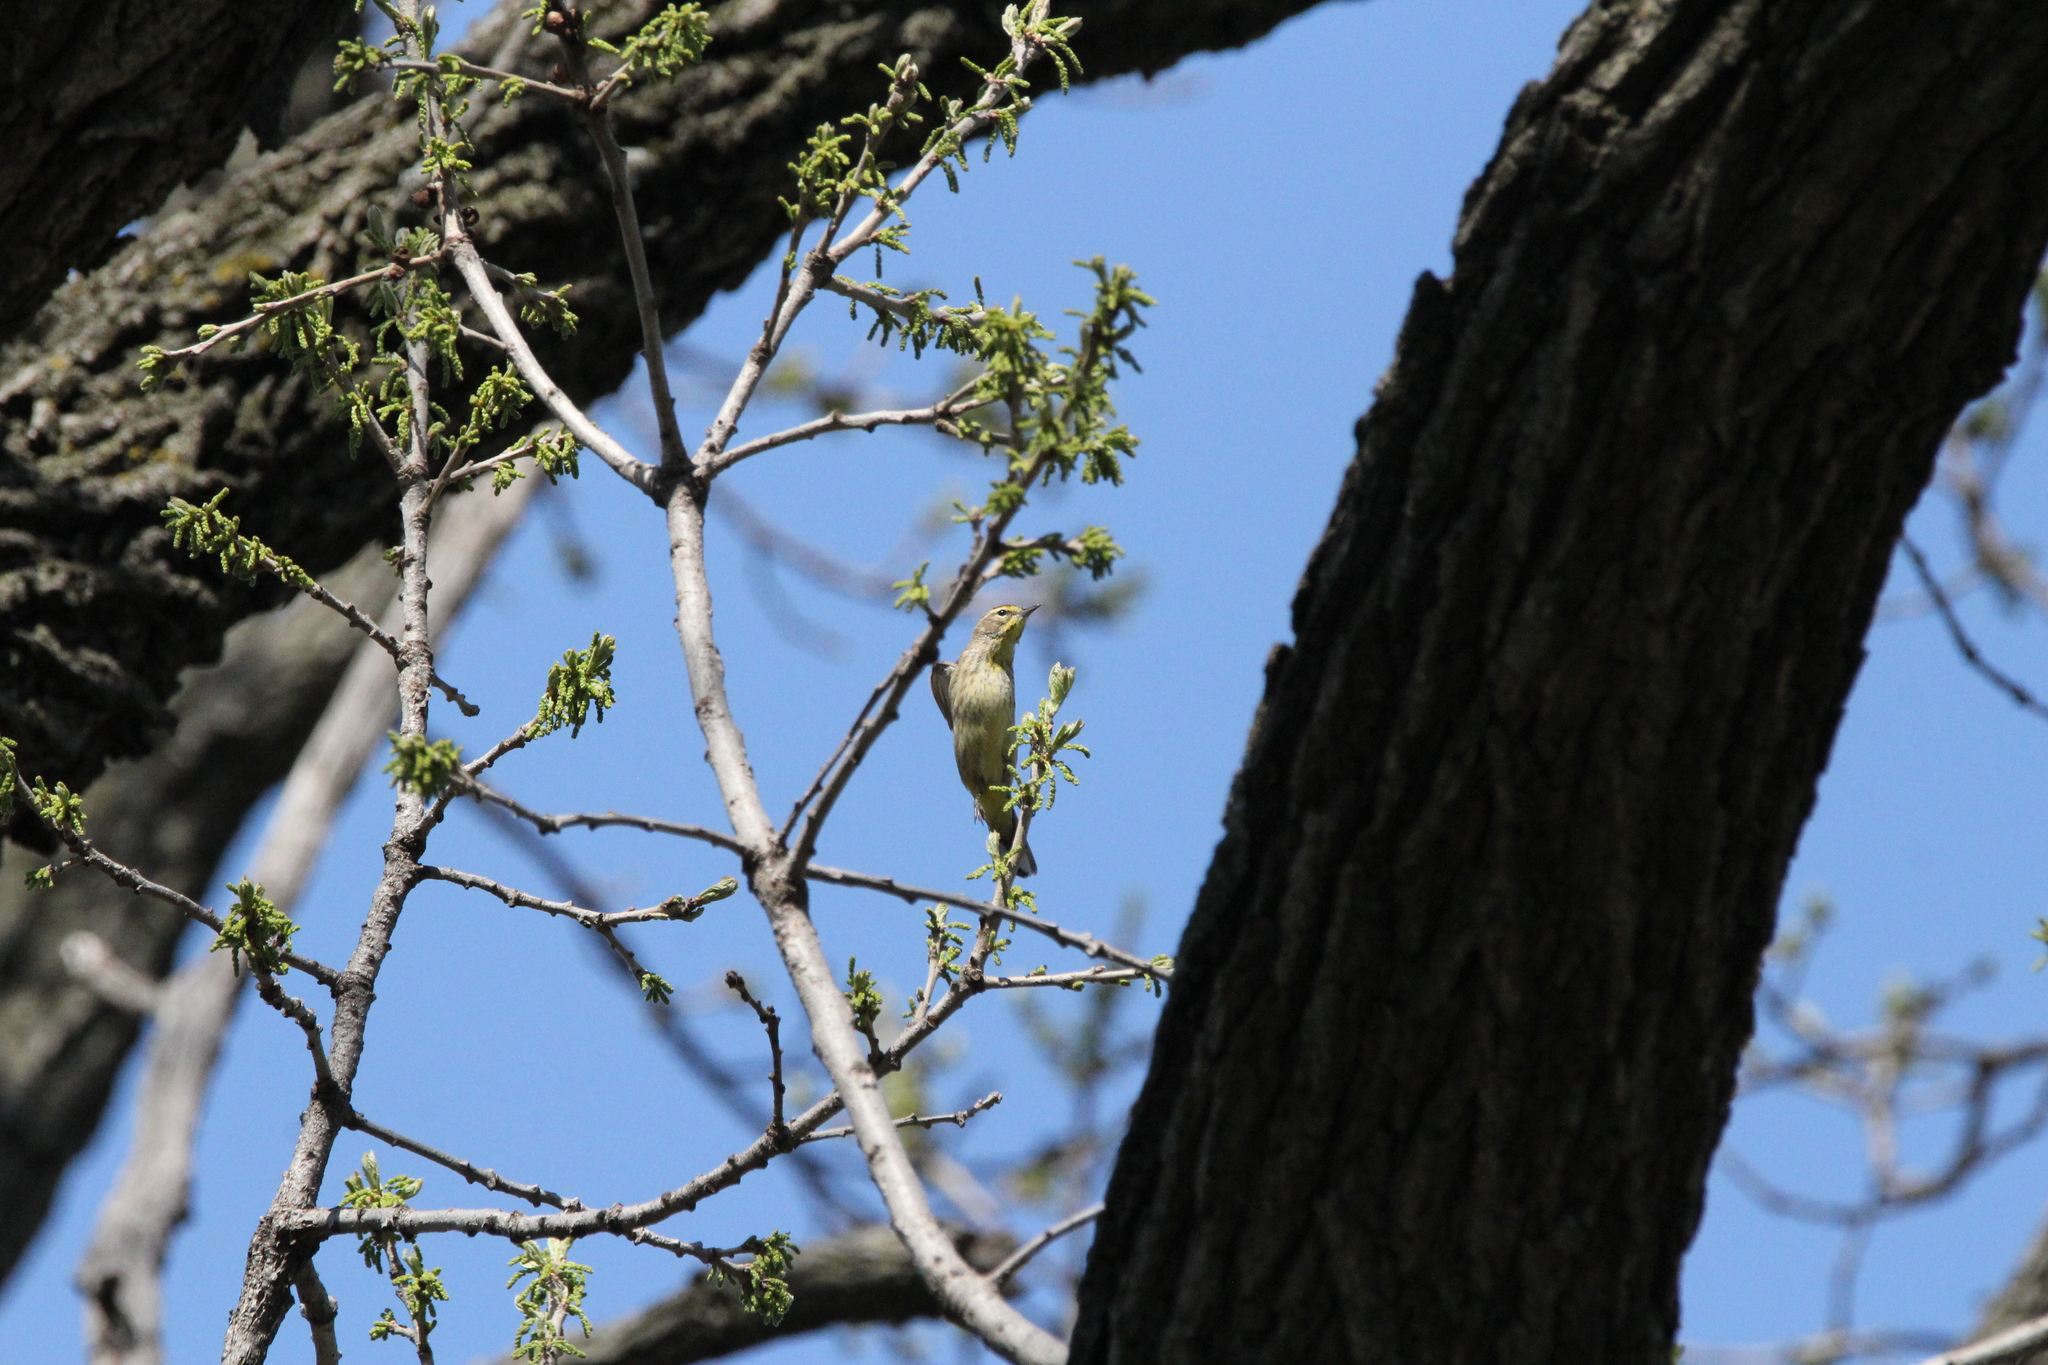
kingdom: Animalia
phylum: Chordata
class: Aves
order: Passeriformes
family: Parulidae
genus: Setophaga
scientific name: Setophaga palmarum
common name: Palm warbler
